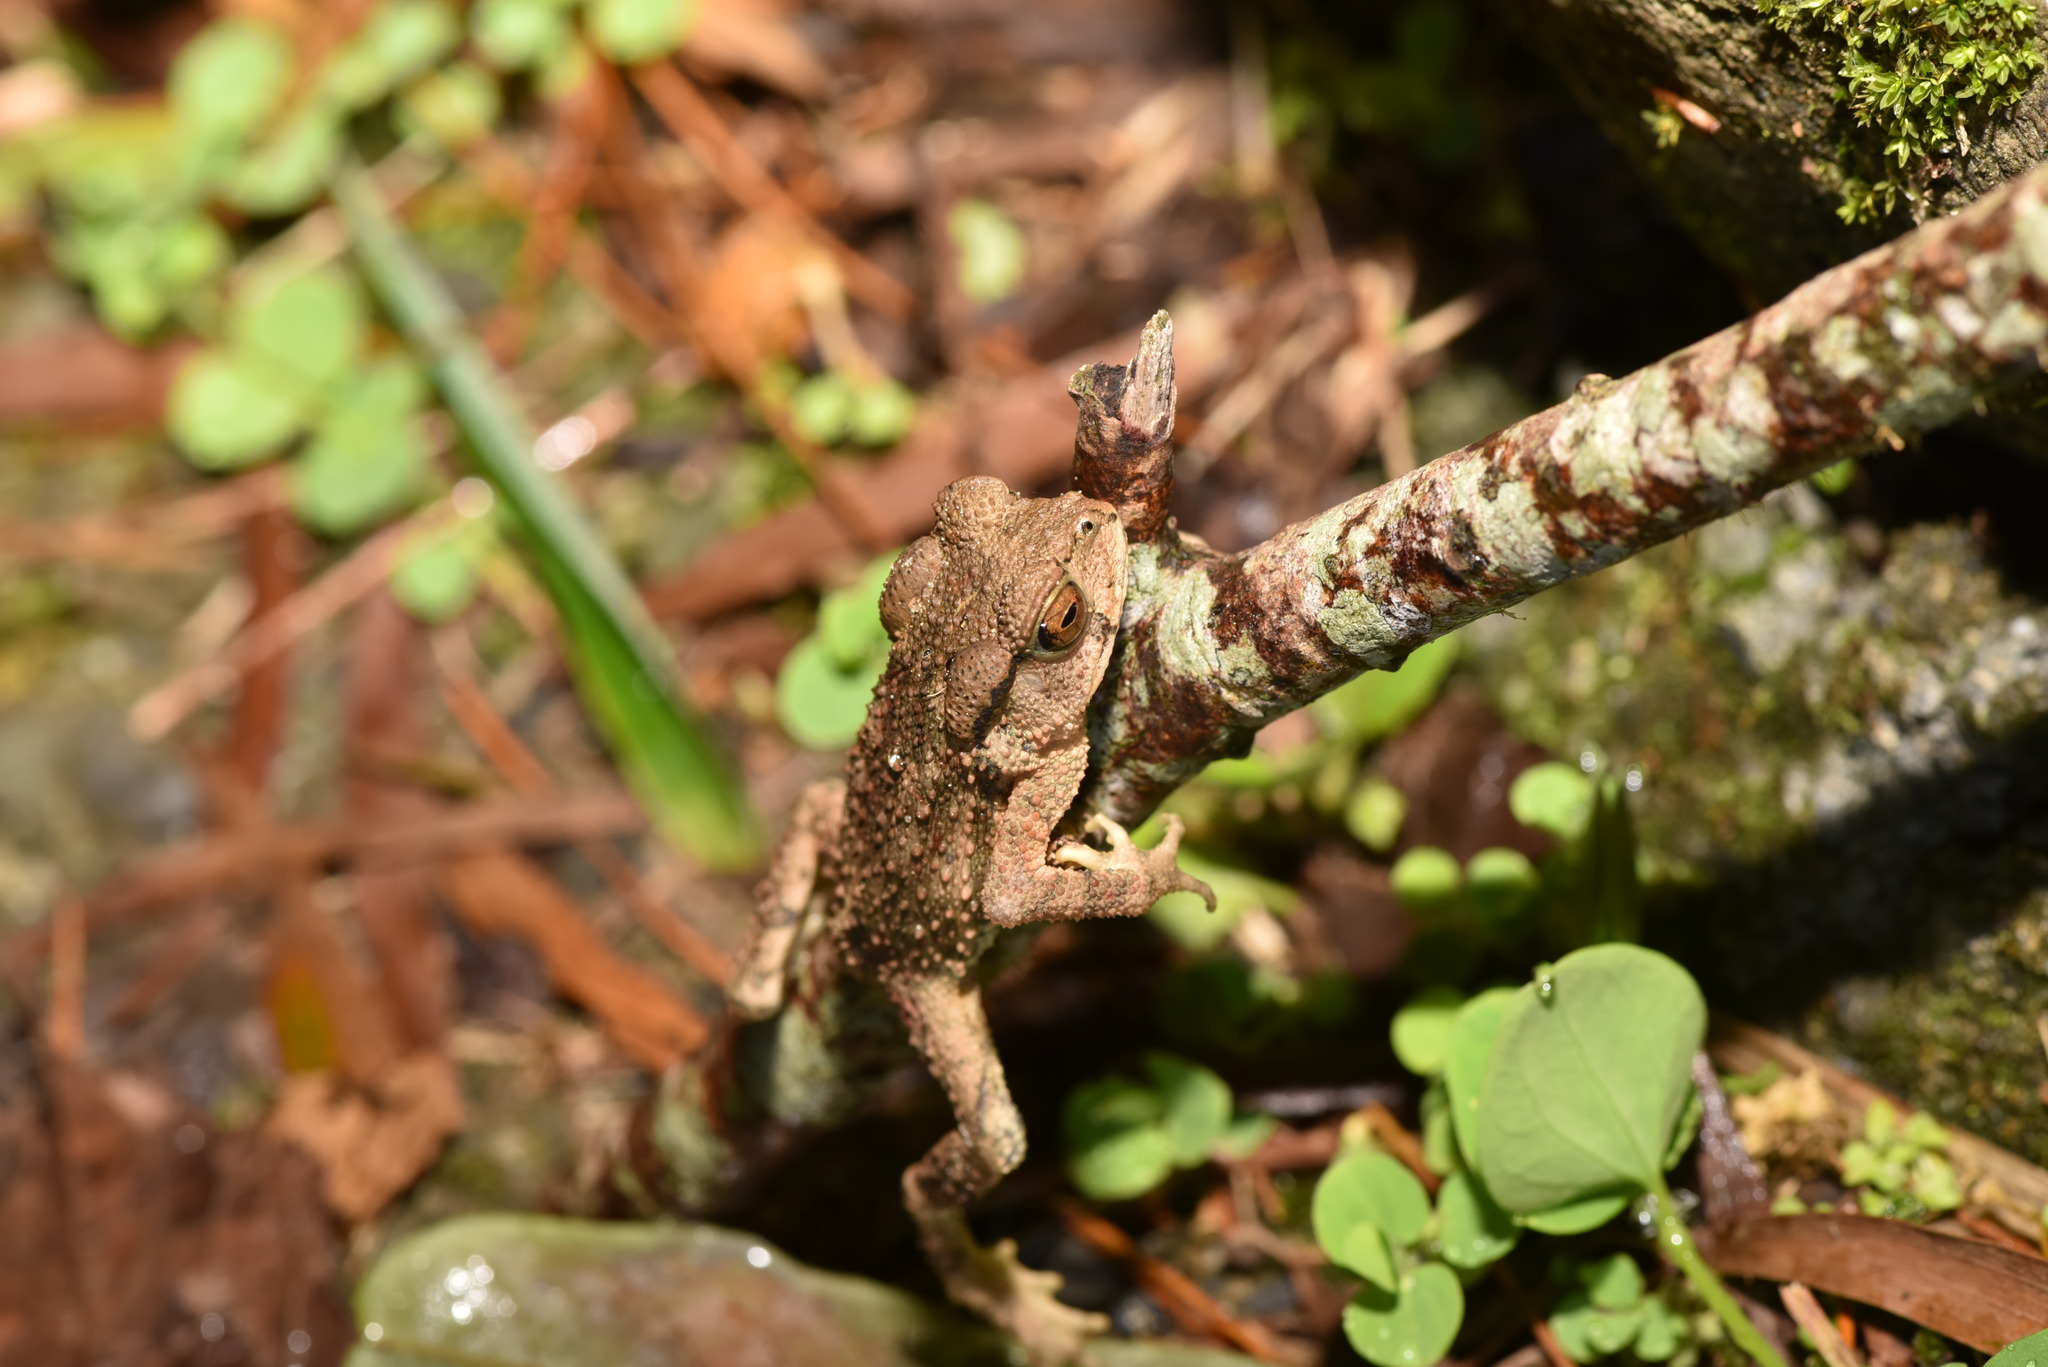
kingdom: Animalia
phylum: Chordata
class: Amphibia
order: Anura
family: Bufonidae
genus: Bufo
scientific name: Bufo bankorensis
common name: Bankor toad
